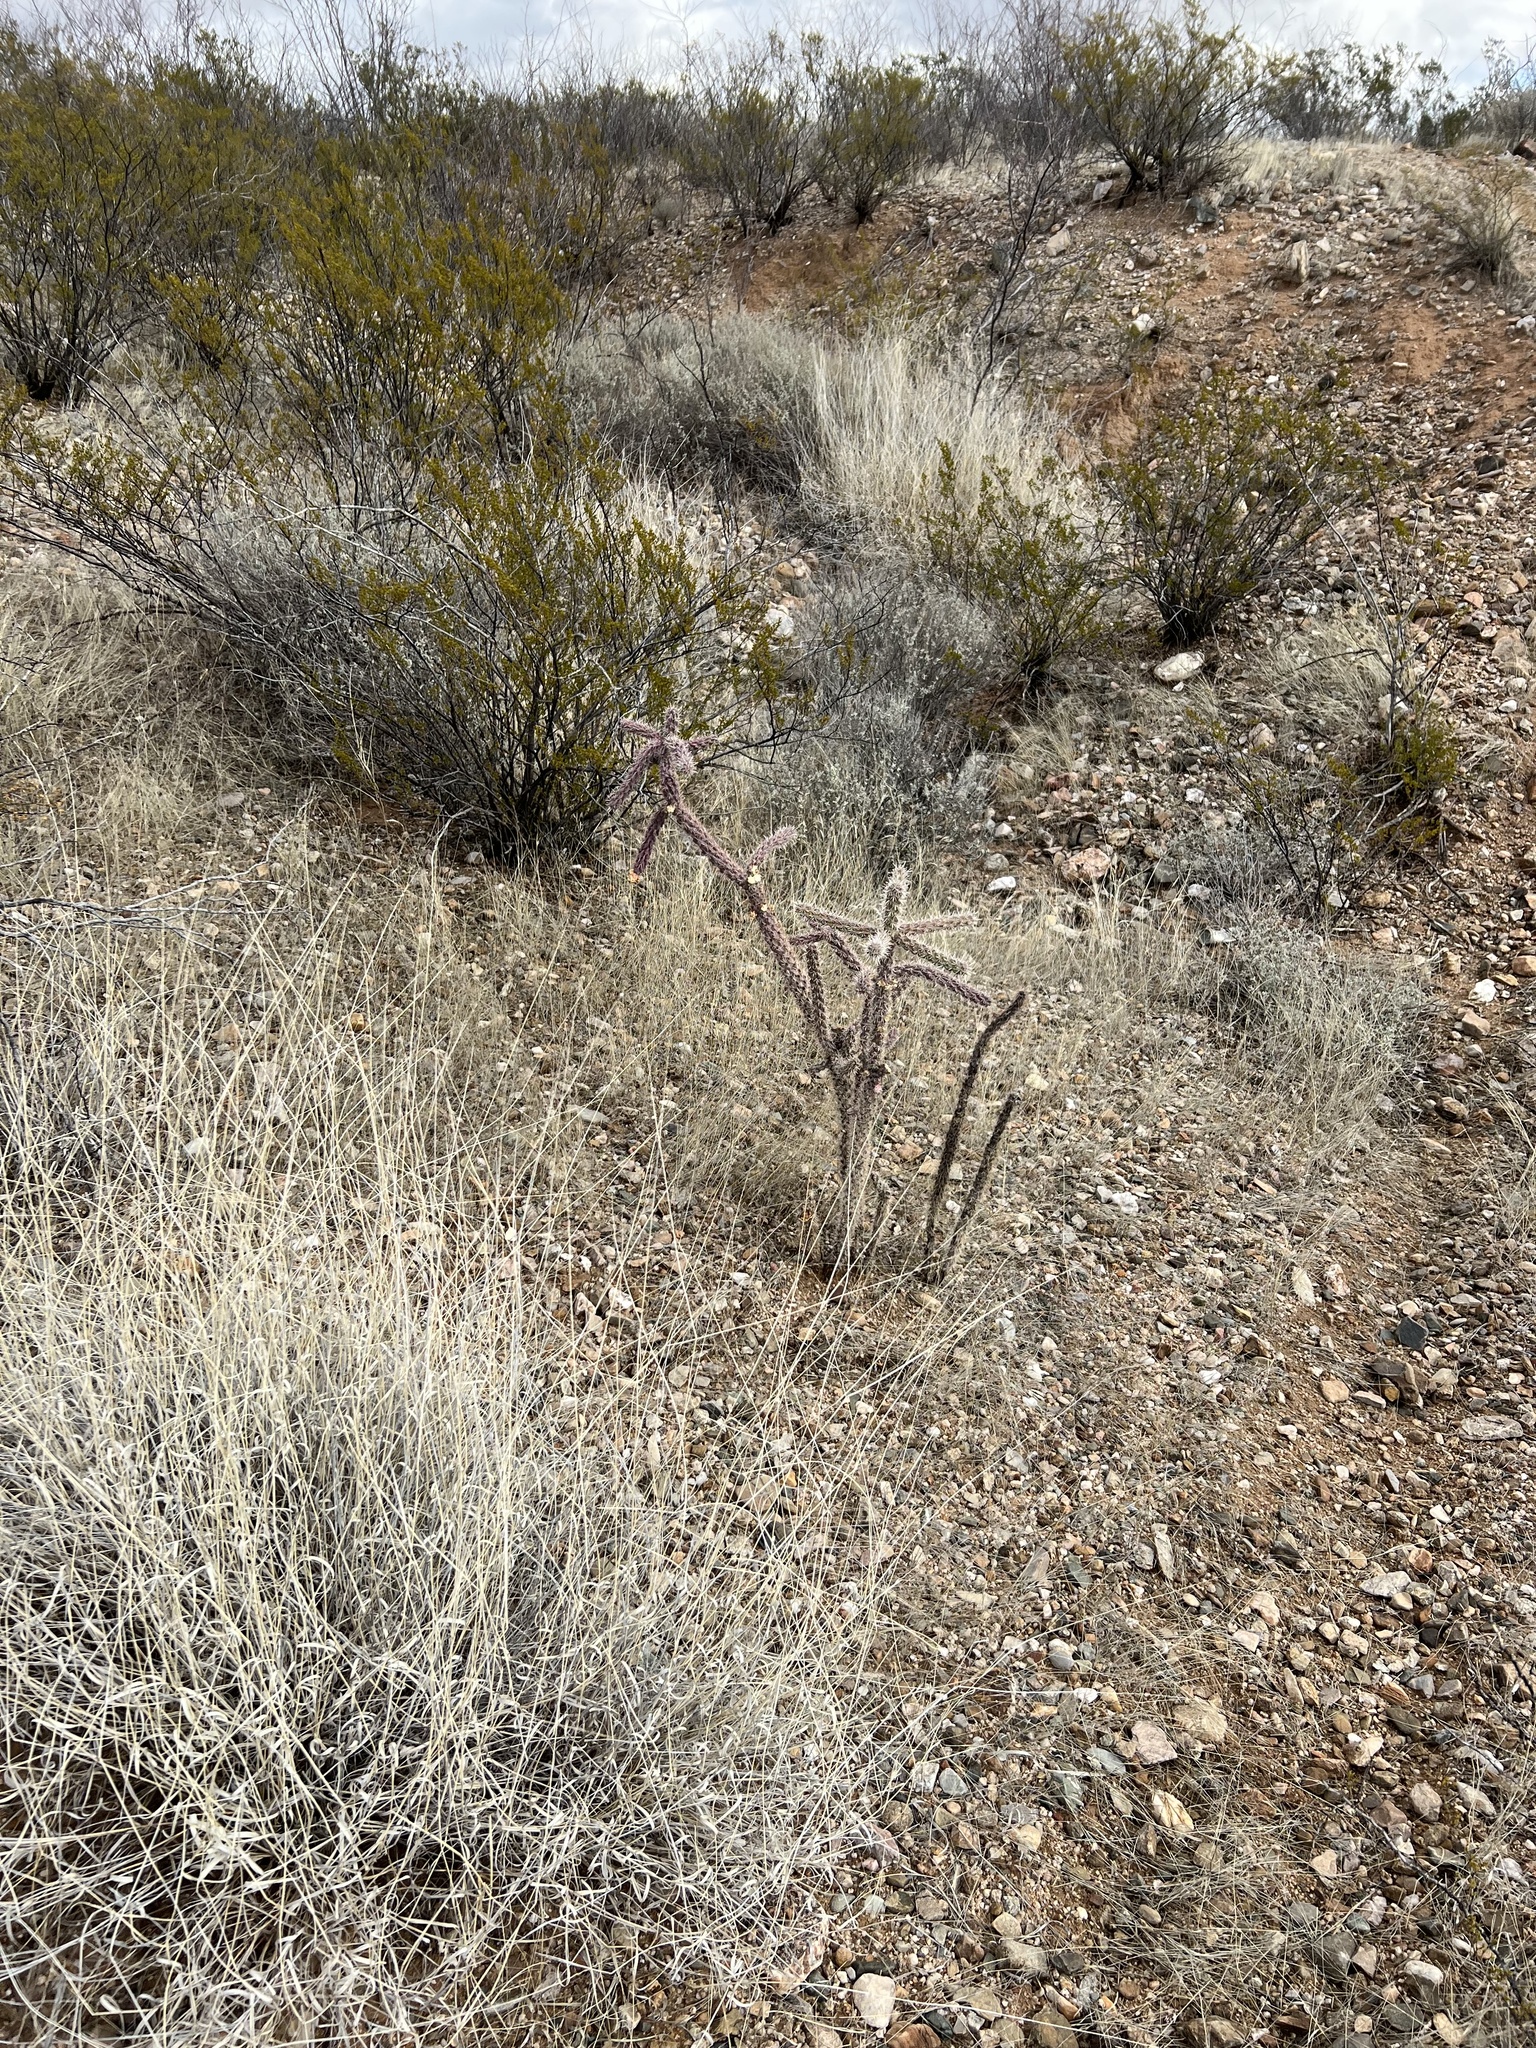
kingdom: Plantae
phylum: Tracheophyta
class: Magnoliopsida
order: Caryophyllales
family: Cactaceae
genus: Cylindropuntia
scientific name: Cylindropuntia imbricata
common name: Candelabrum cactus
